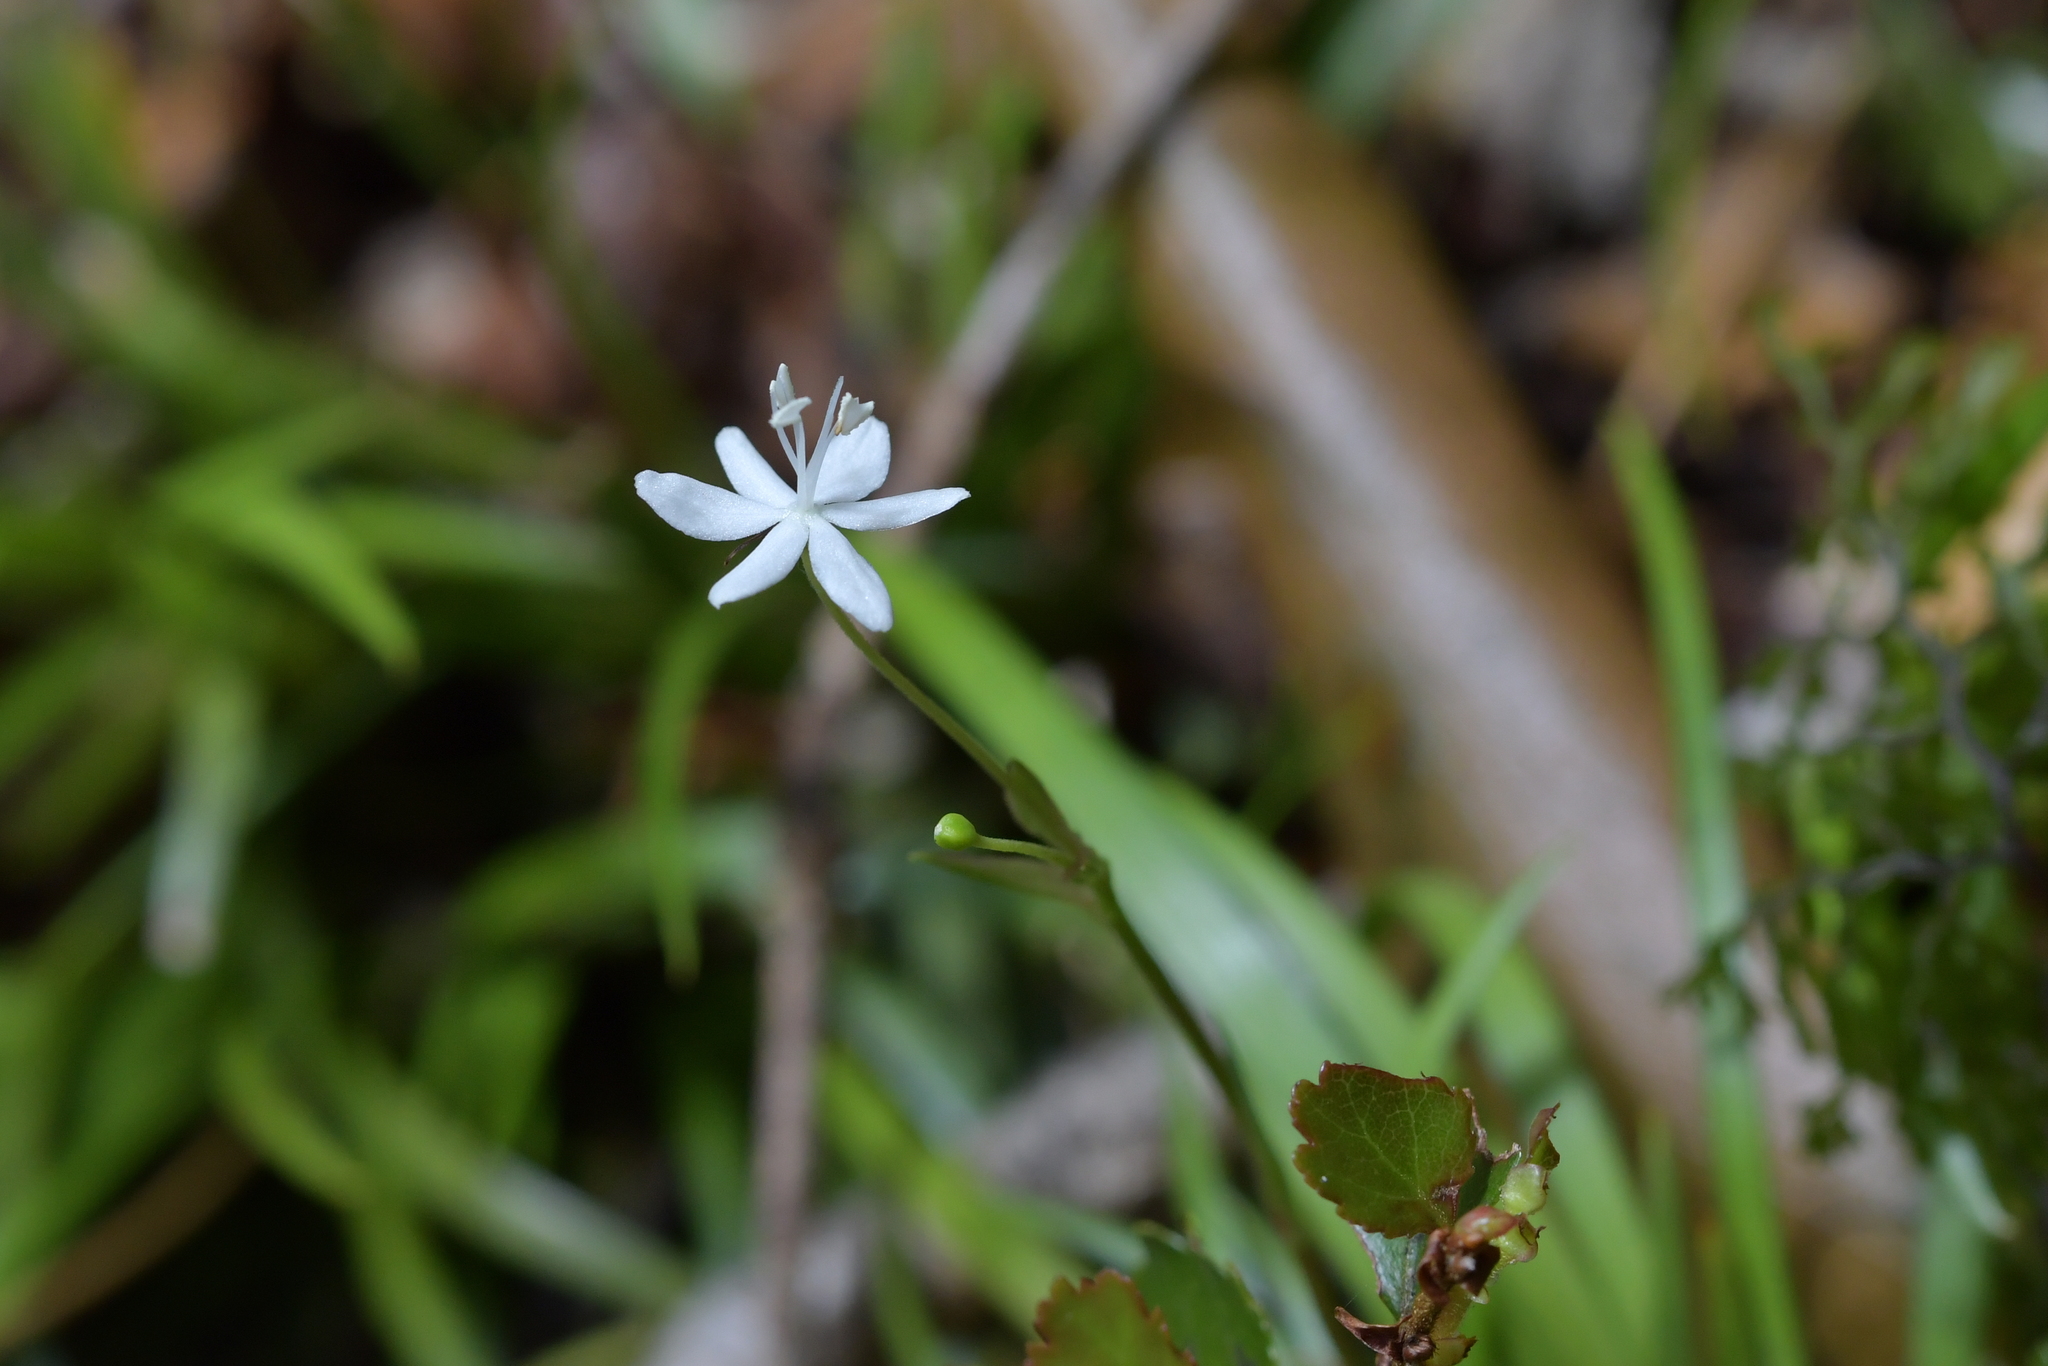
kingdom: Plantae
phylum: Tracheophyta
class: Liliopsida
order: Asparagales
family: Iridaceae
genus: Libertia
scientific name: Libertia micrantha
